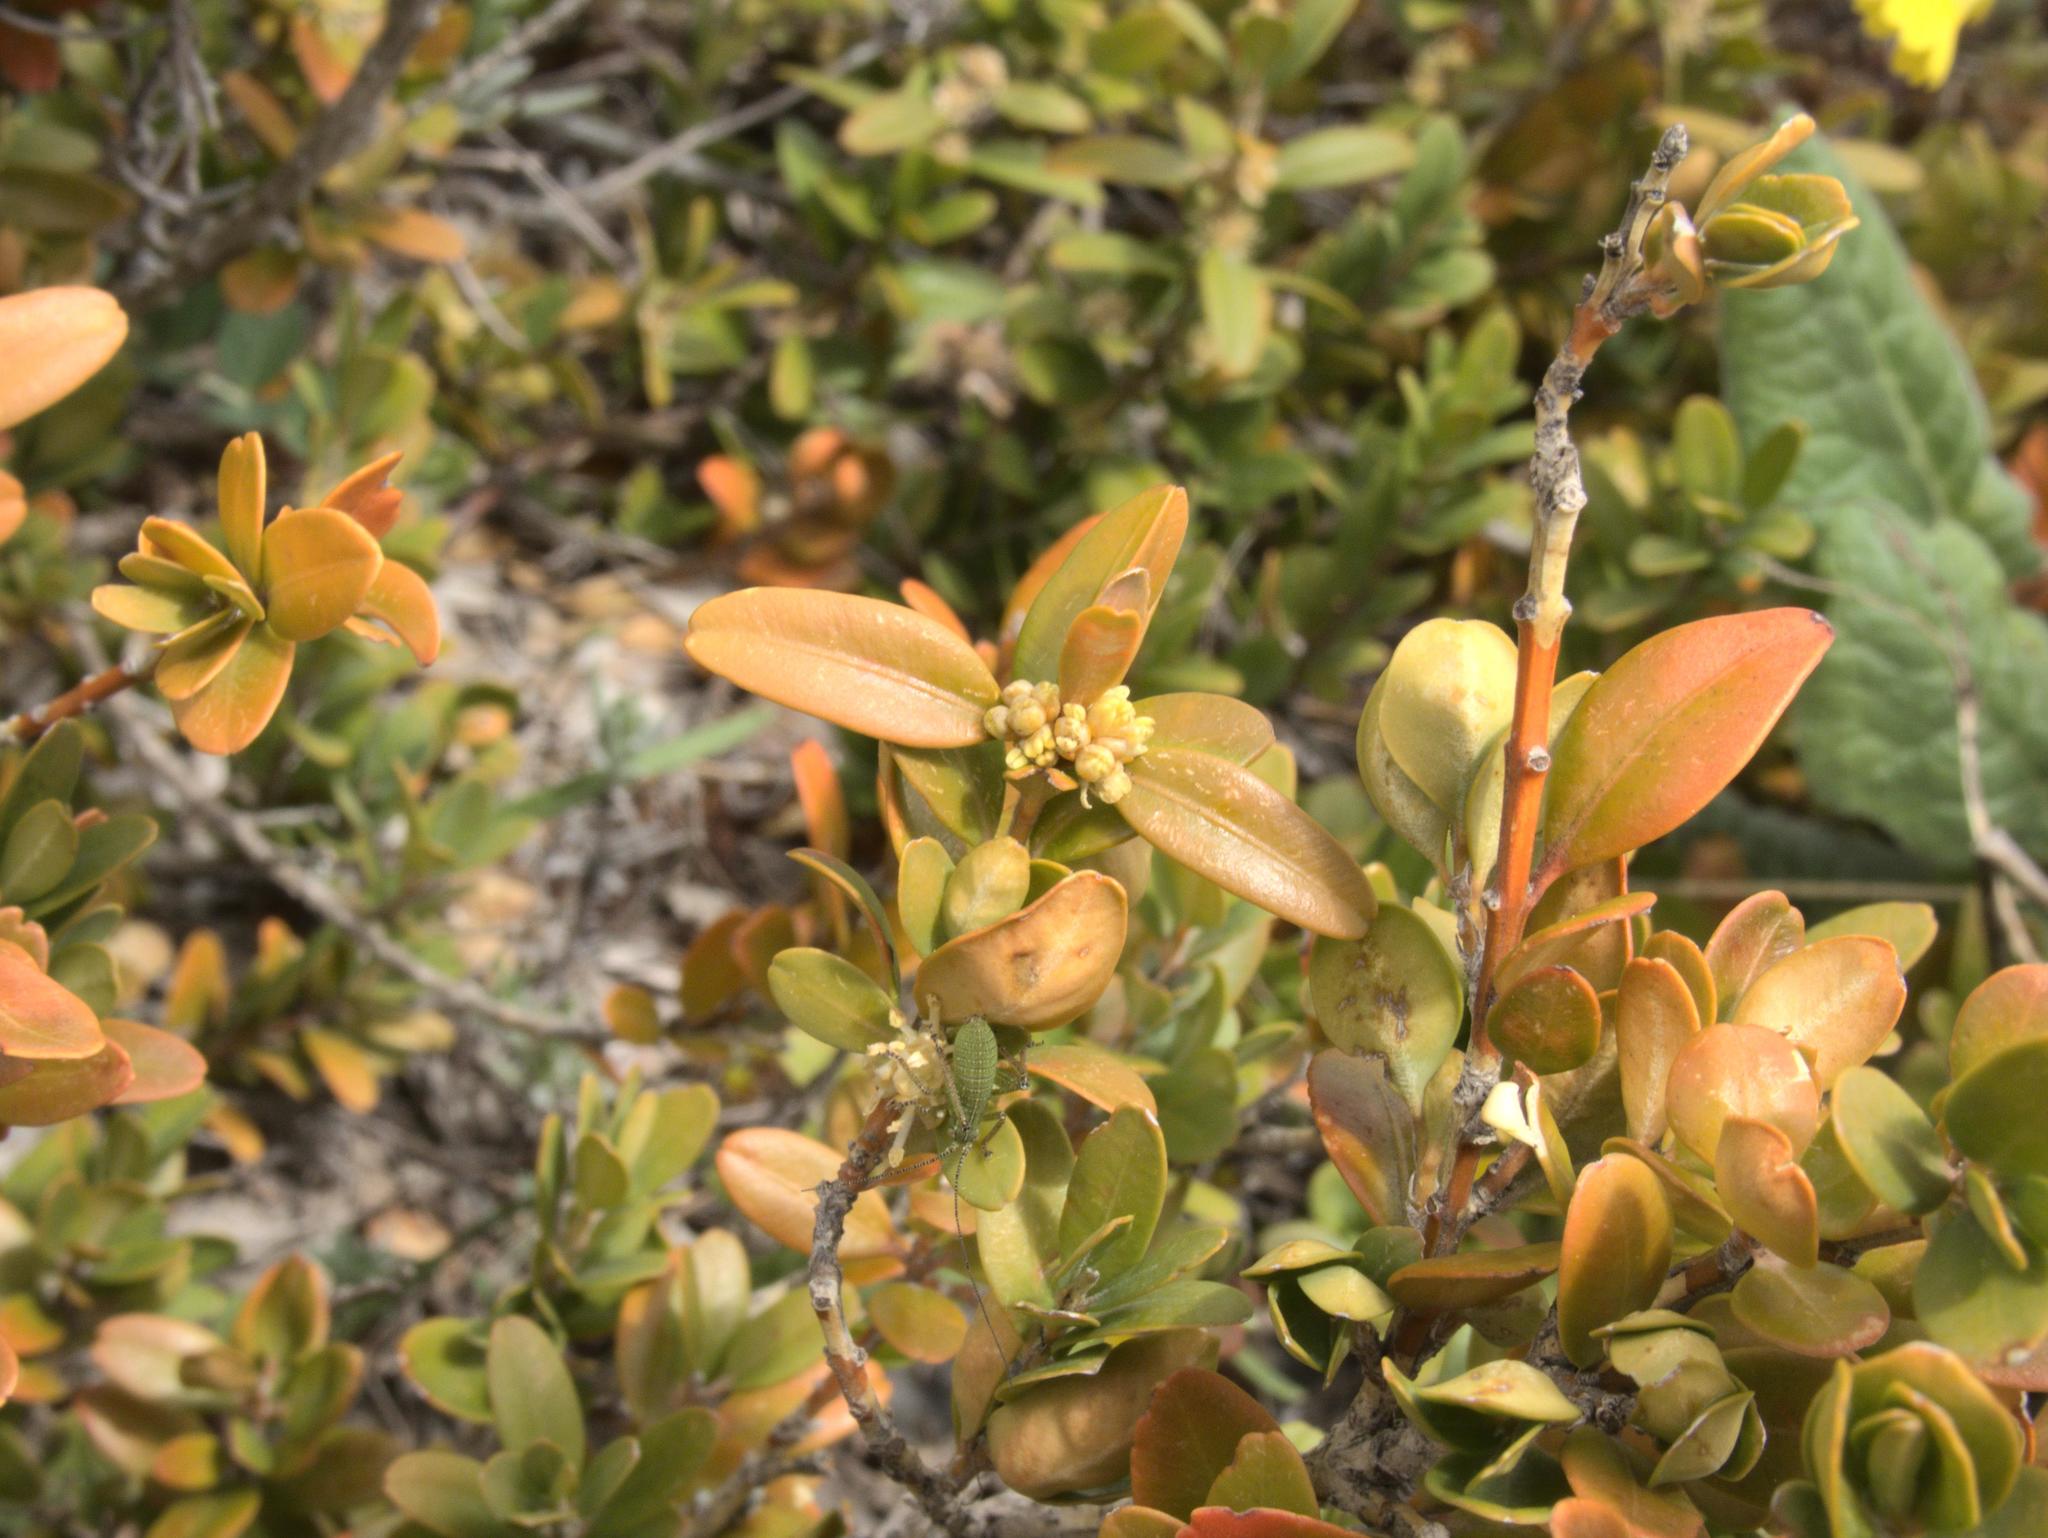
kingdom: Plantae
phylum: Tracheophyta
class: Magnoliopsida
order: Buxales
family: Buxaceae
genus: Buxus
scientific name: Buxus sempervirens
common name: Box
